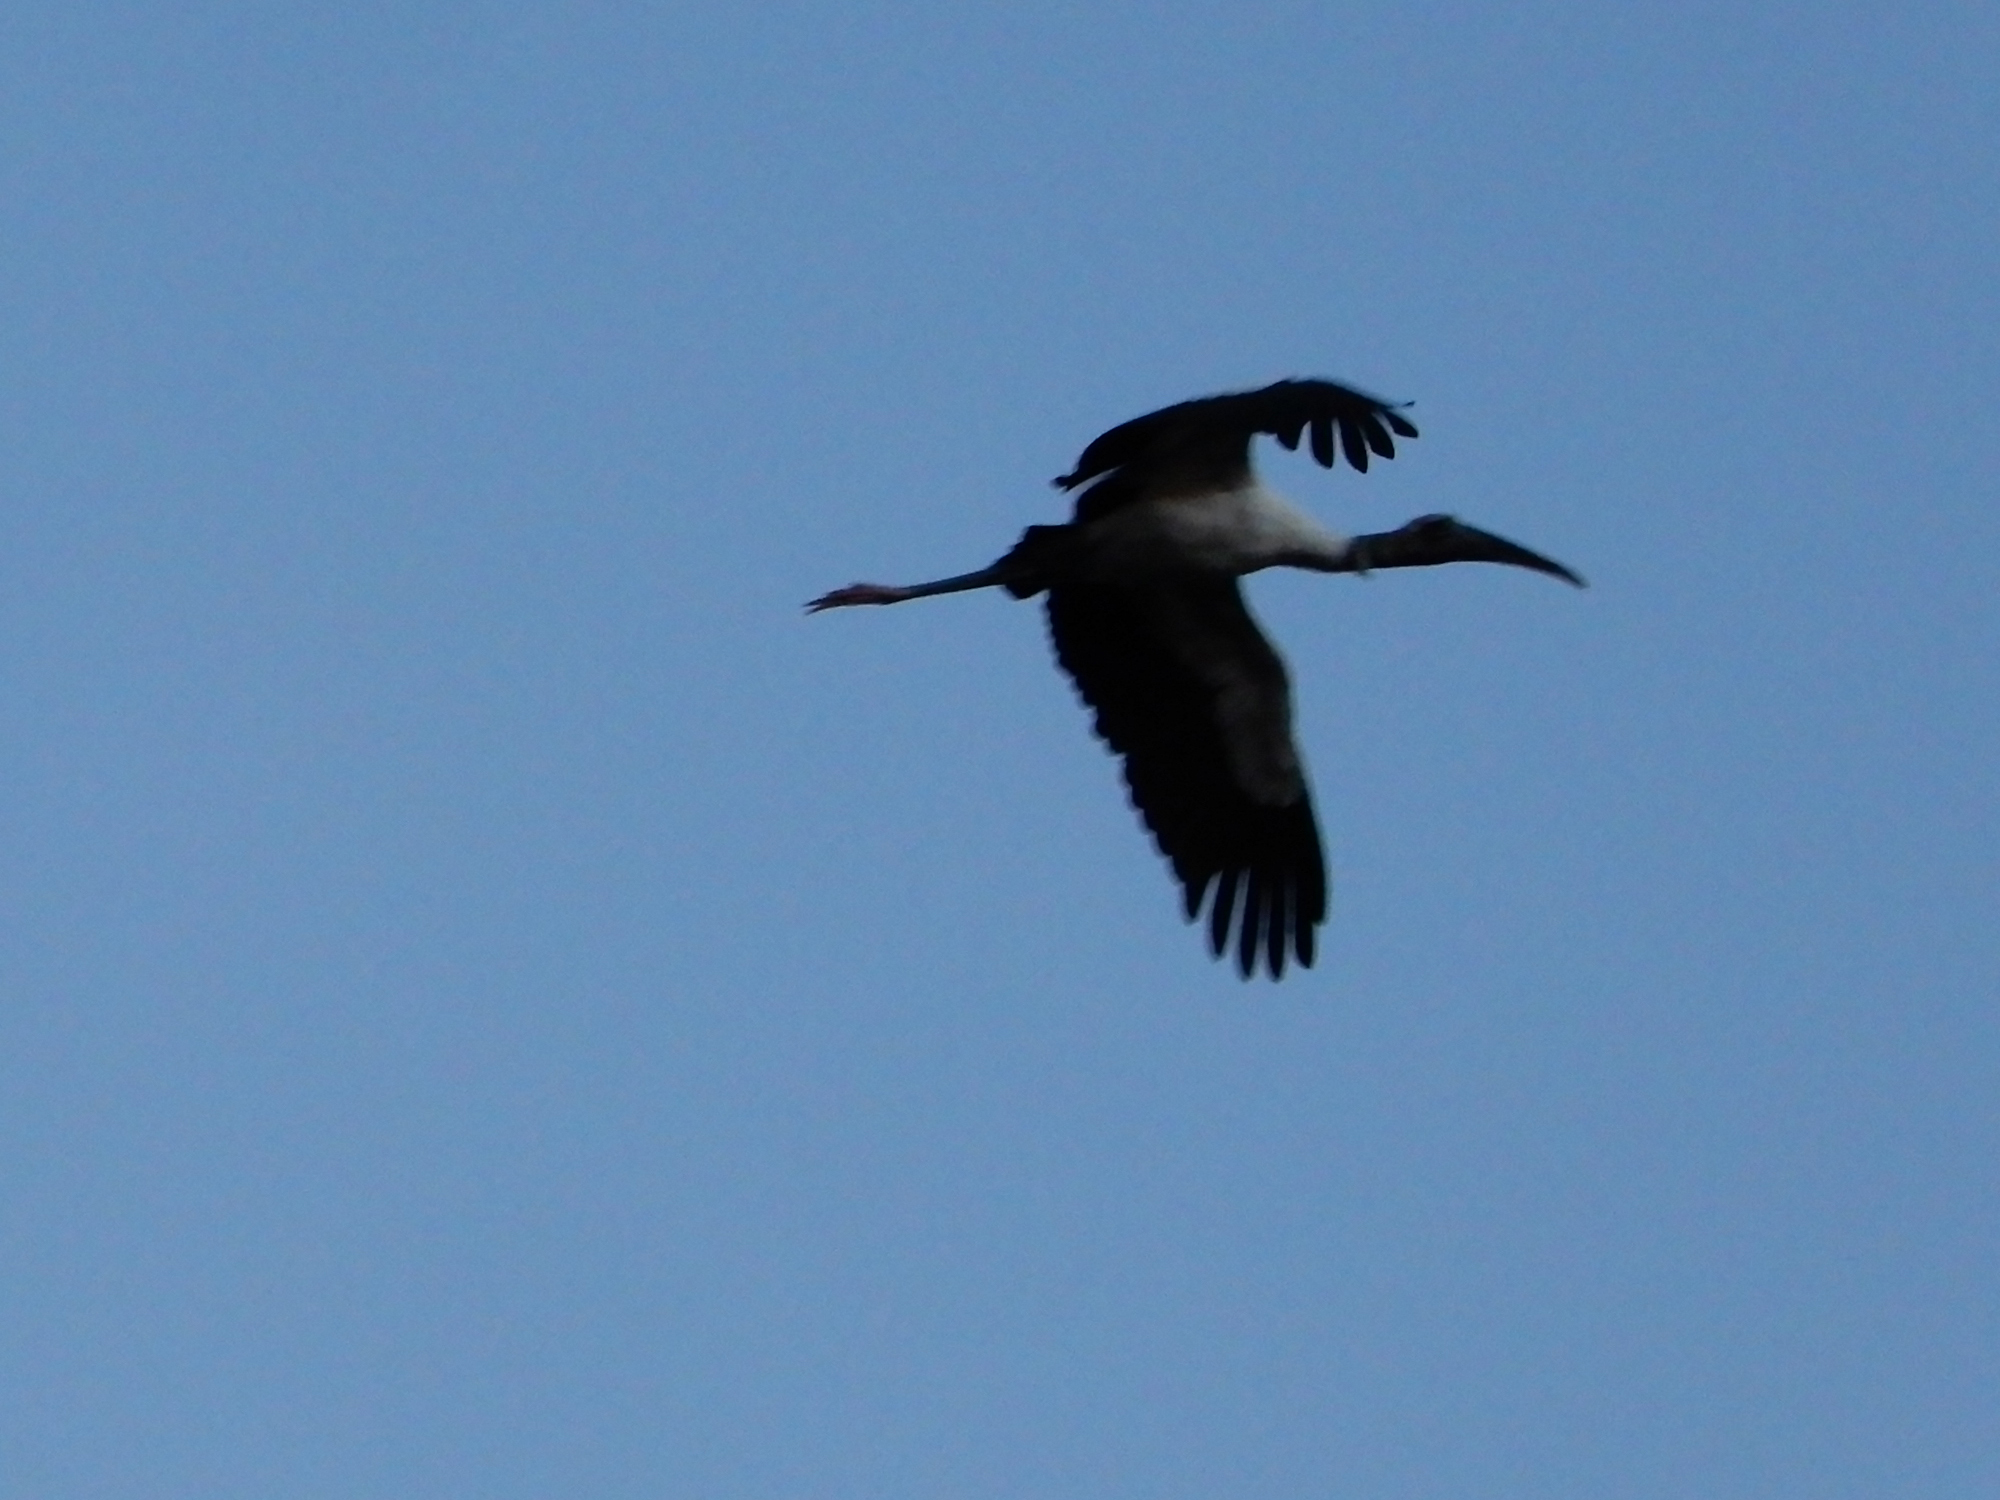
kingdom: Animalia
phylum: Chordata
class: Aves
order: Ciconiiformes
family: Ciconiidae
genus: Mycteria
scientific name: Mycteria americana
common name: Wood stork
